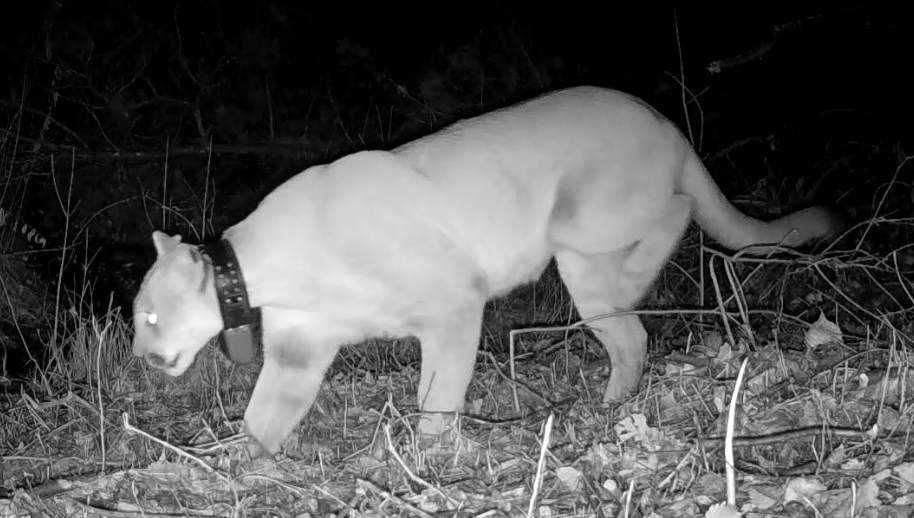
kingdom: Animalia
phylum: Chordata
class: Mammalia
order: Carnivora
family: Felidae
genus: Puma
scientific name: Puma concolor
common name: Puma
